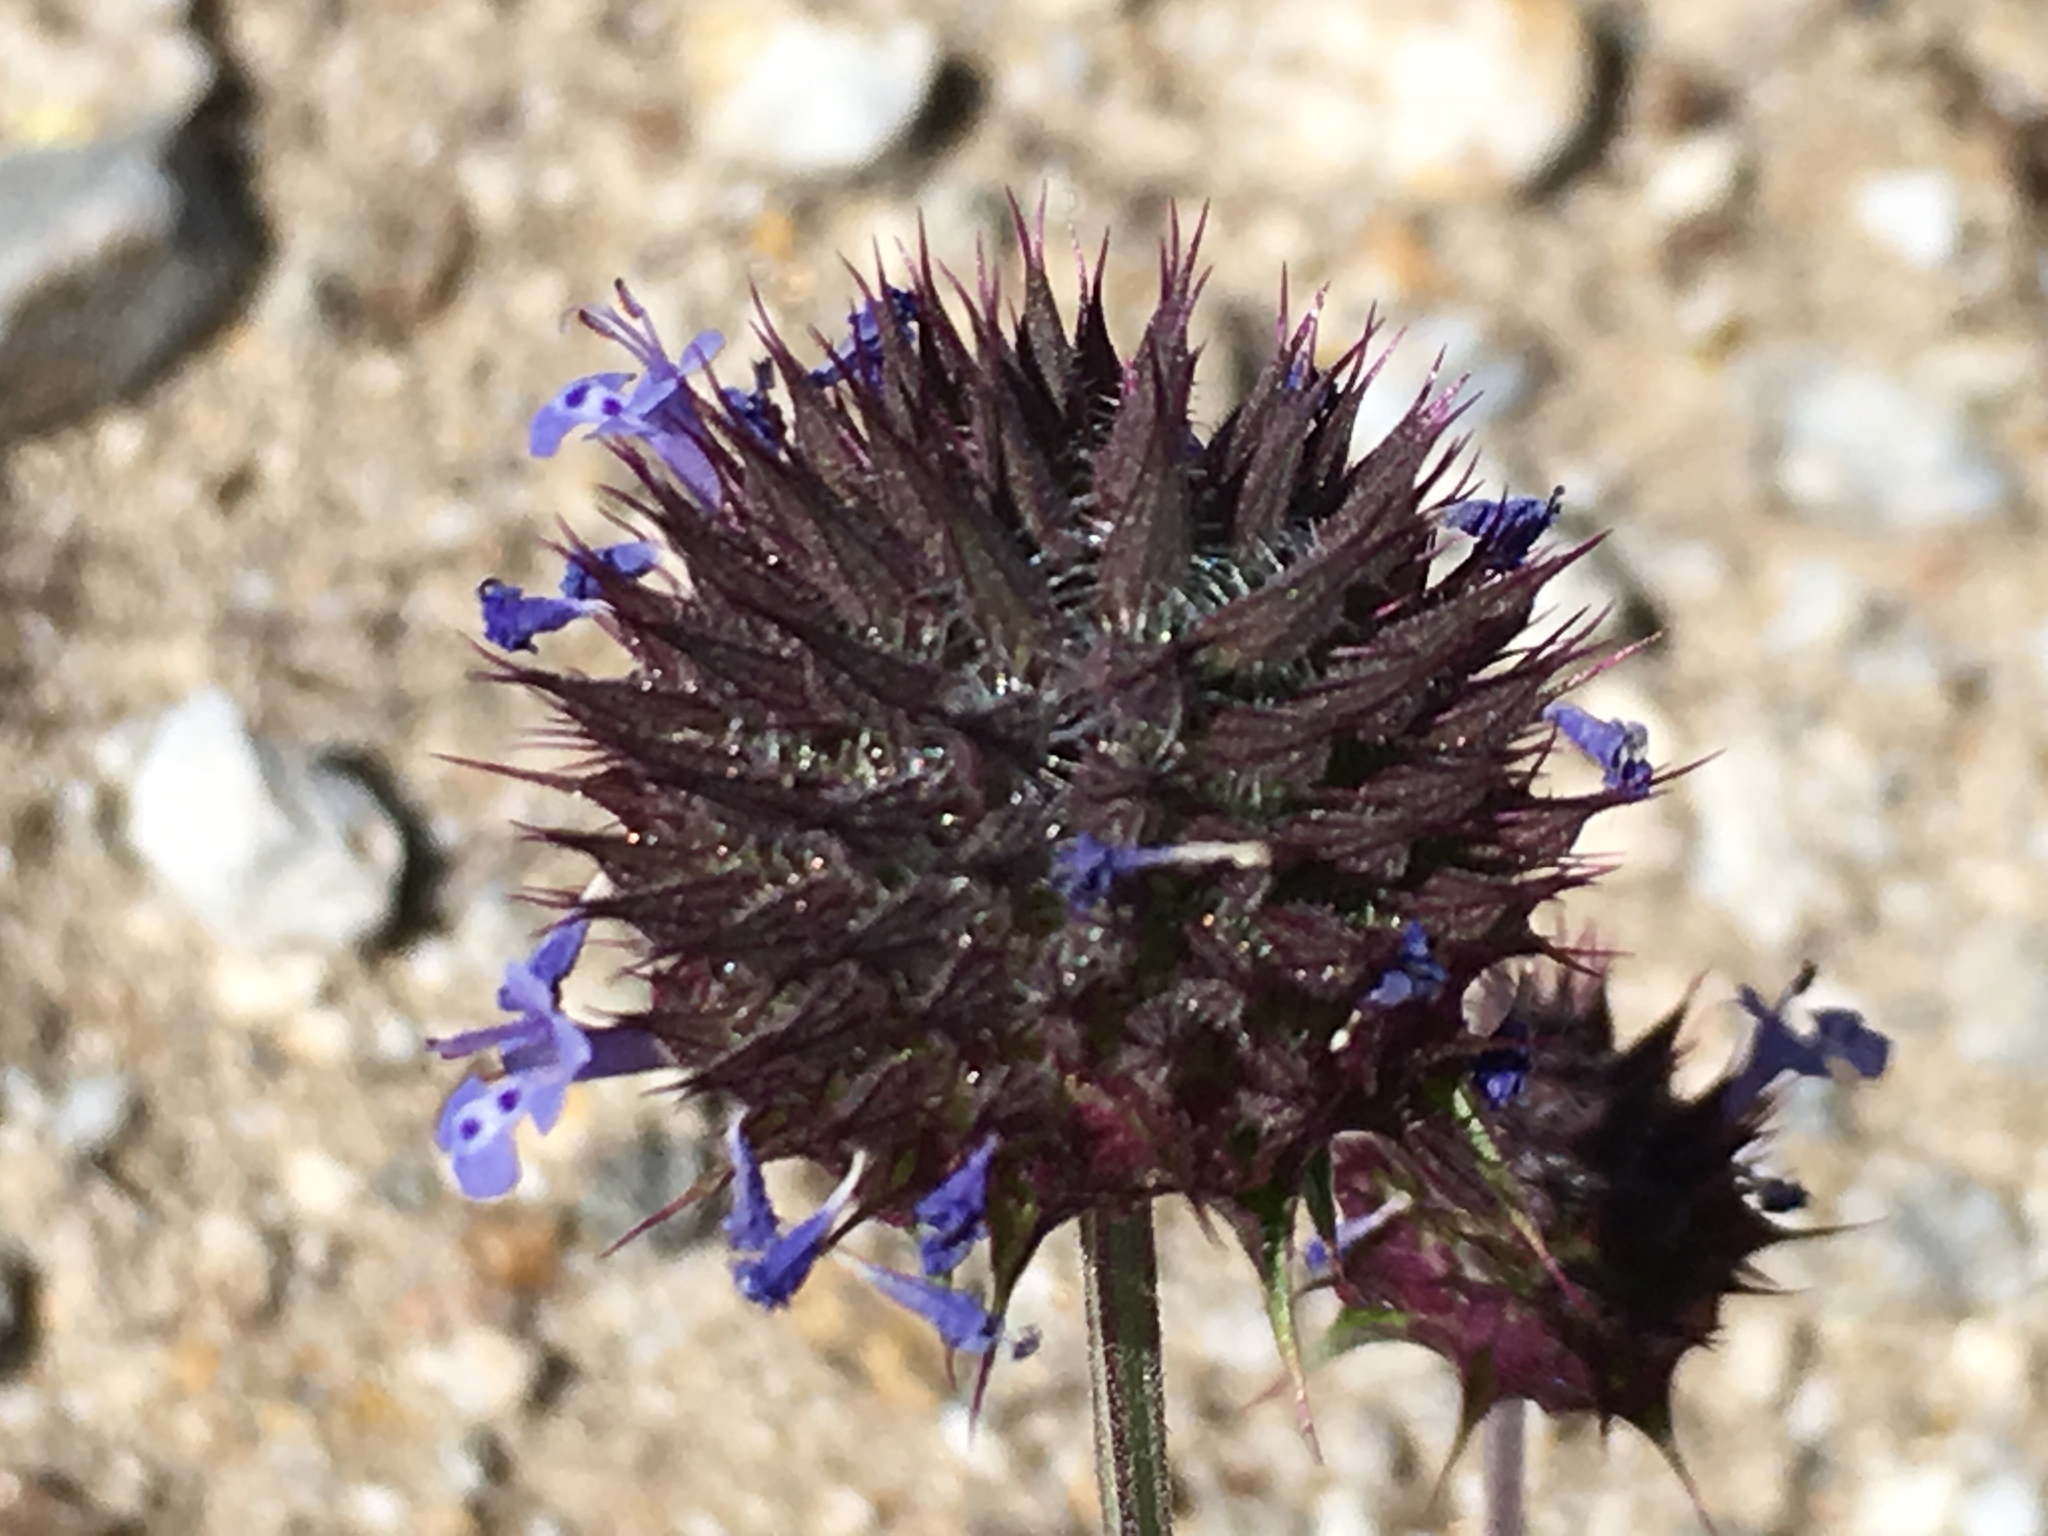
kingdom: Plantae
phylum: Tracheophyta
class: Magnoliopsida
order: Lamiales
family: Lamiaceae
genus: Salvia
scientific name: Salvia columbariae
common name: Chia
